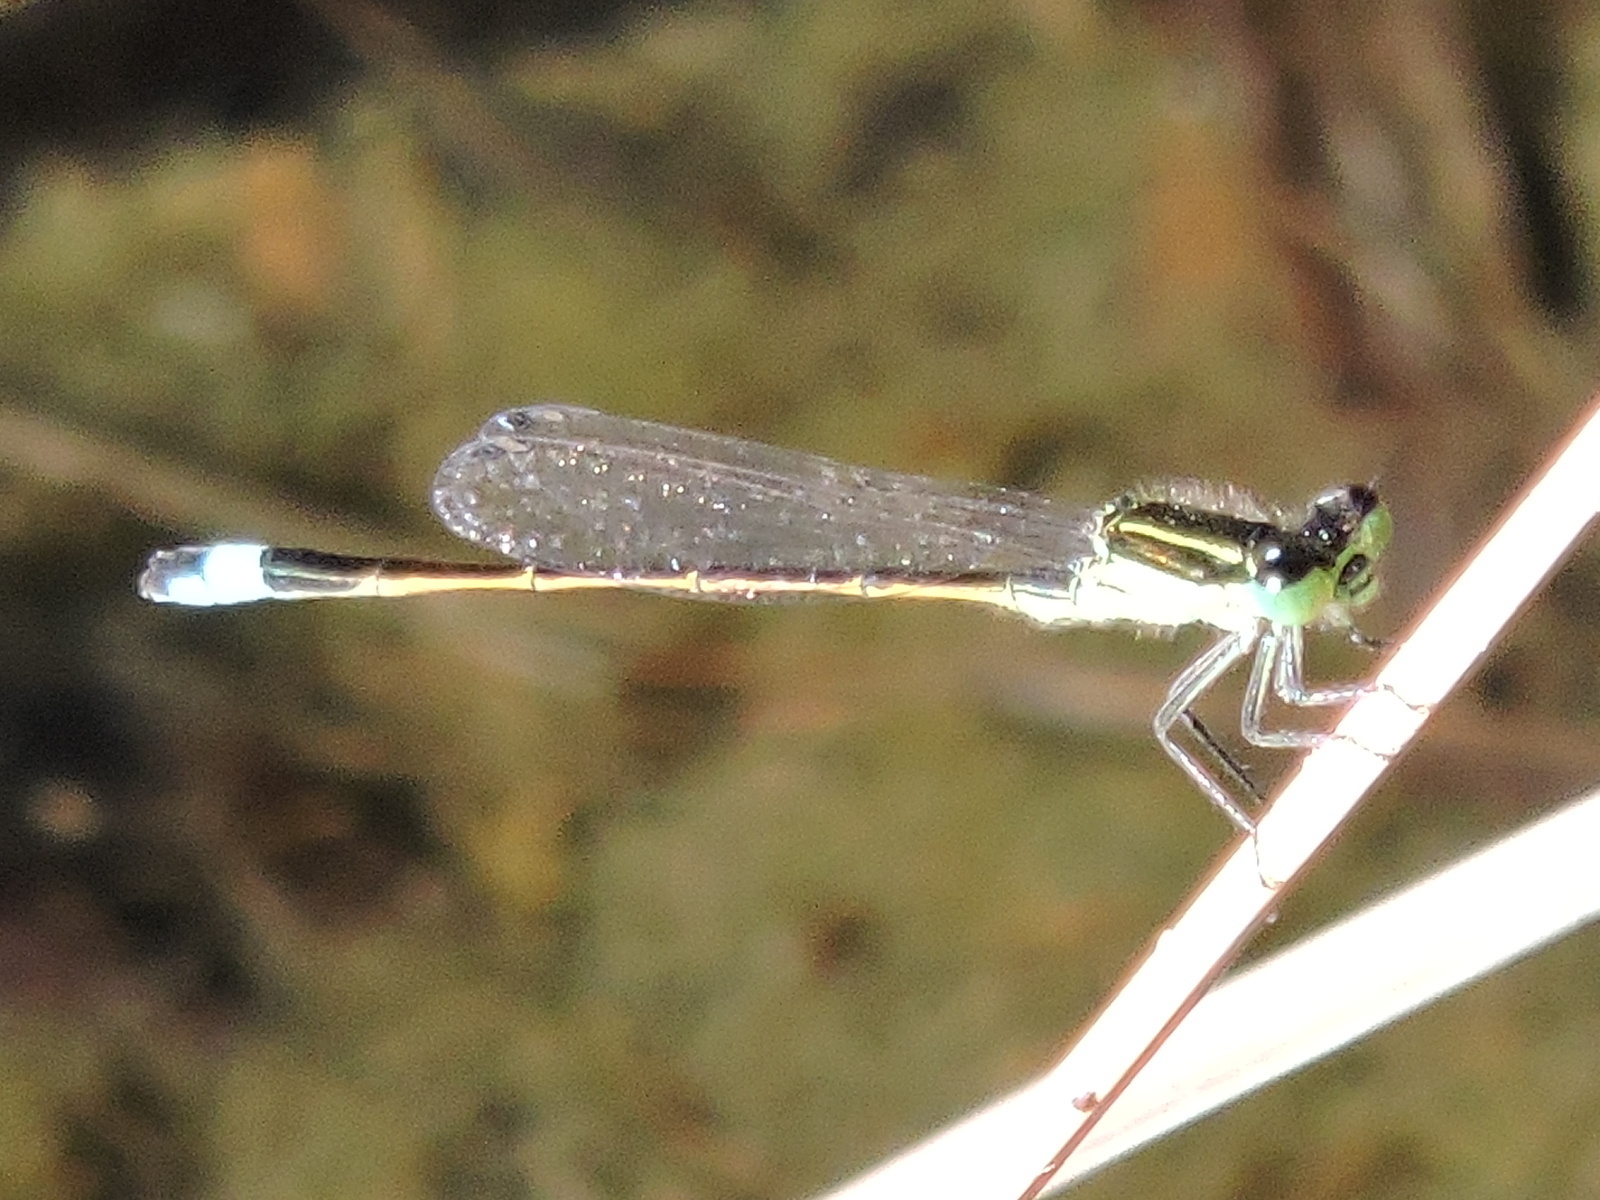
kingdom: Animalia
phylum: Arthropoda
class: Insecta
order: Odonata
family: Coenagrionidae
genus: Ischnura
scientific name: Ischnura ramburii
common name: Rambur's forktail
